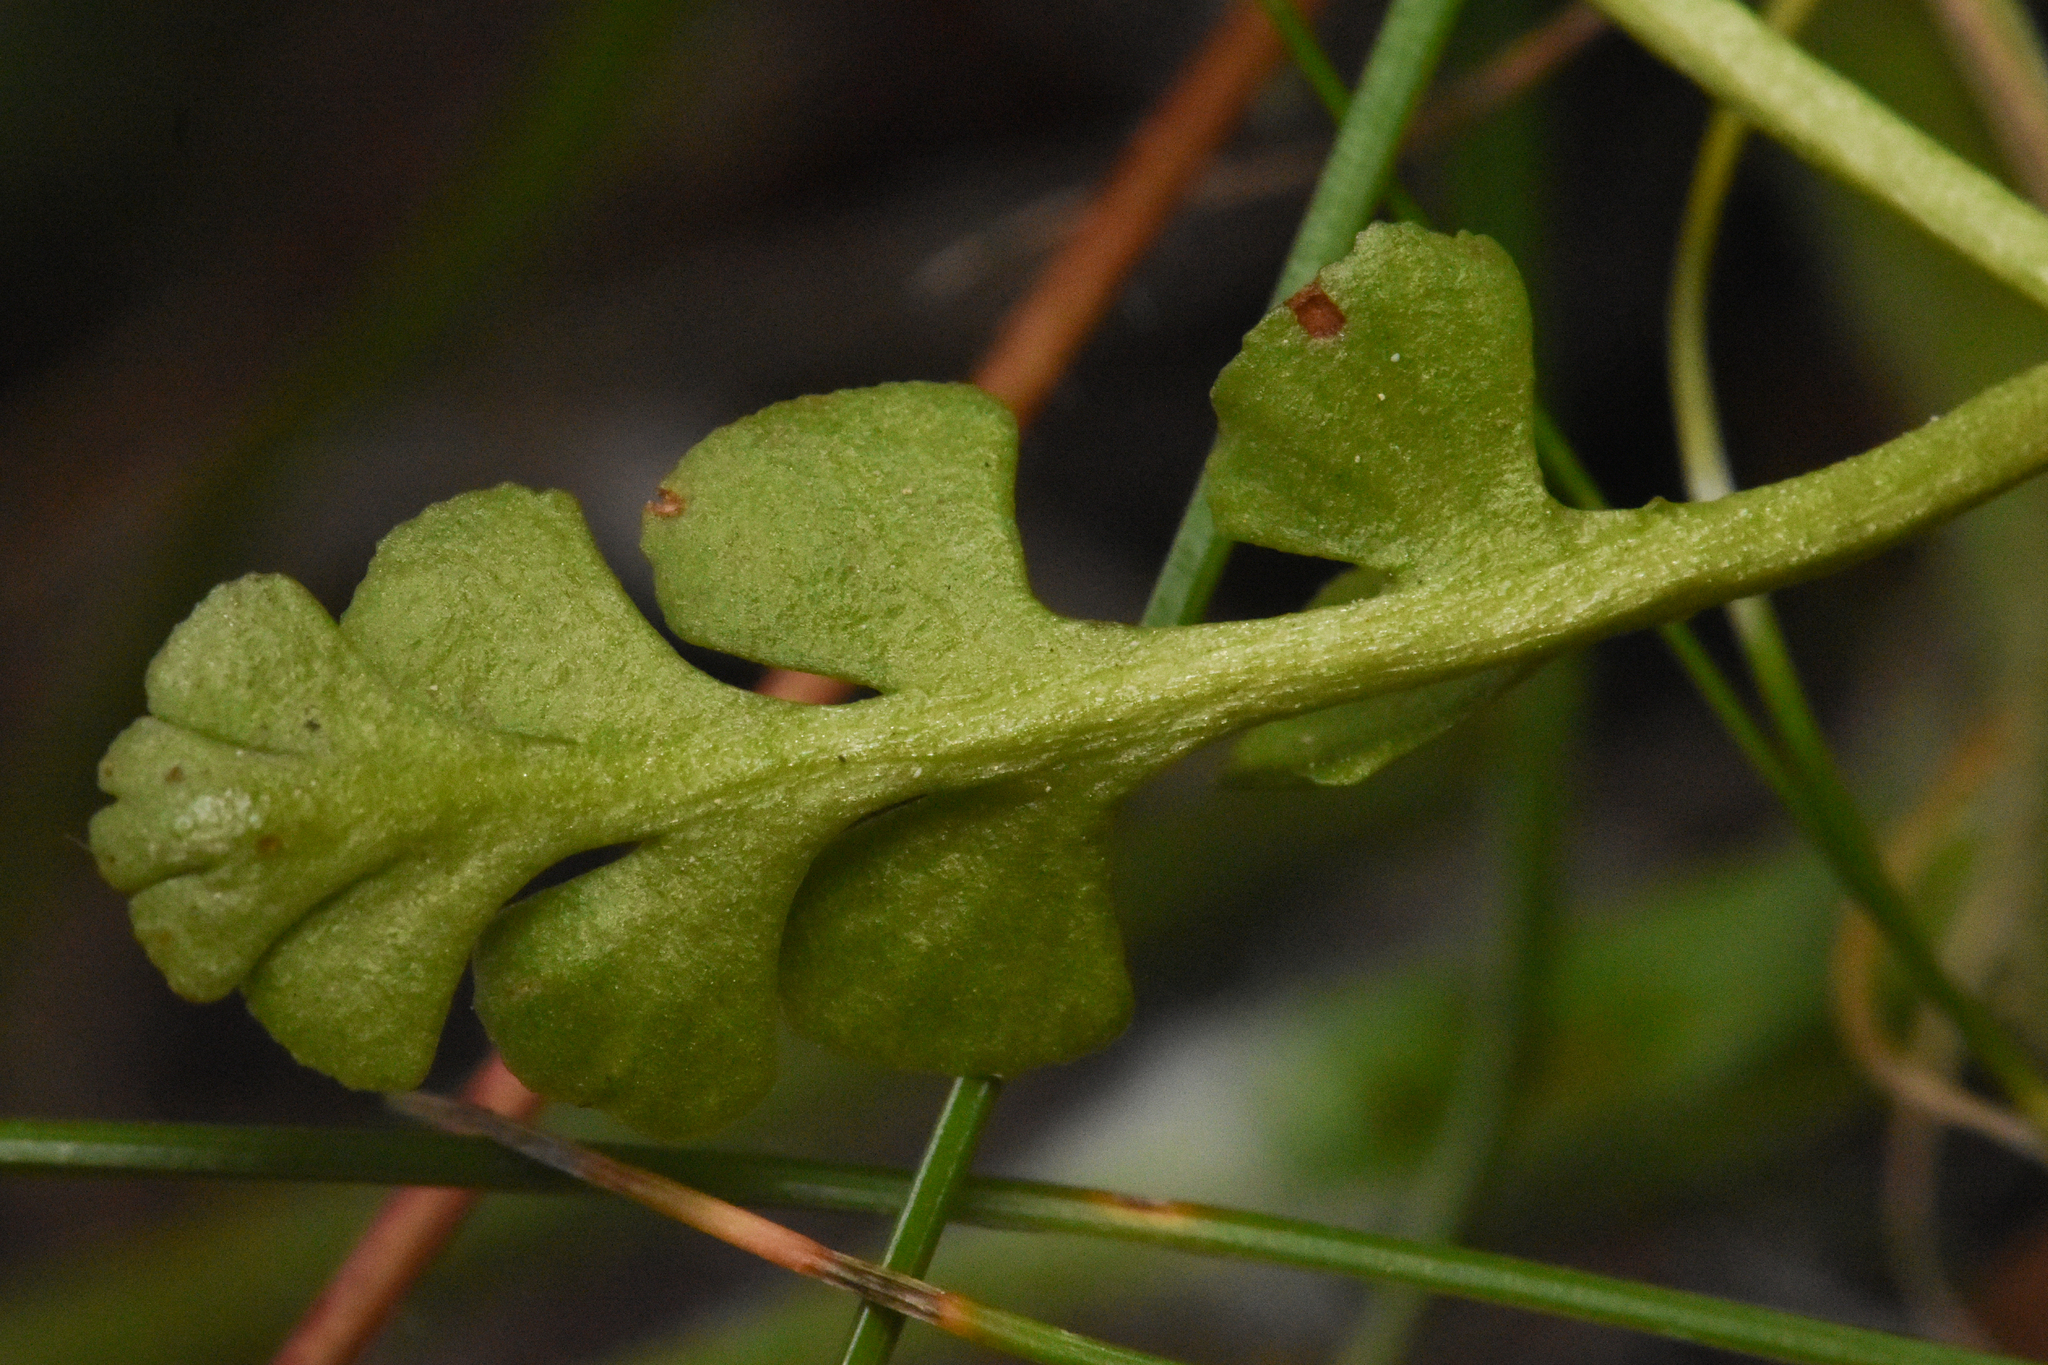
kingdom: Plantae
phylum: Tracheophyta
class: Polypodiopsida
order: Ophioglossales
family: Ophioglossaceae
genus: Botrychium
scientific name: Botrychium minganense
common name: Mingan grapefern
